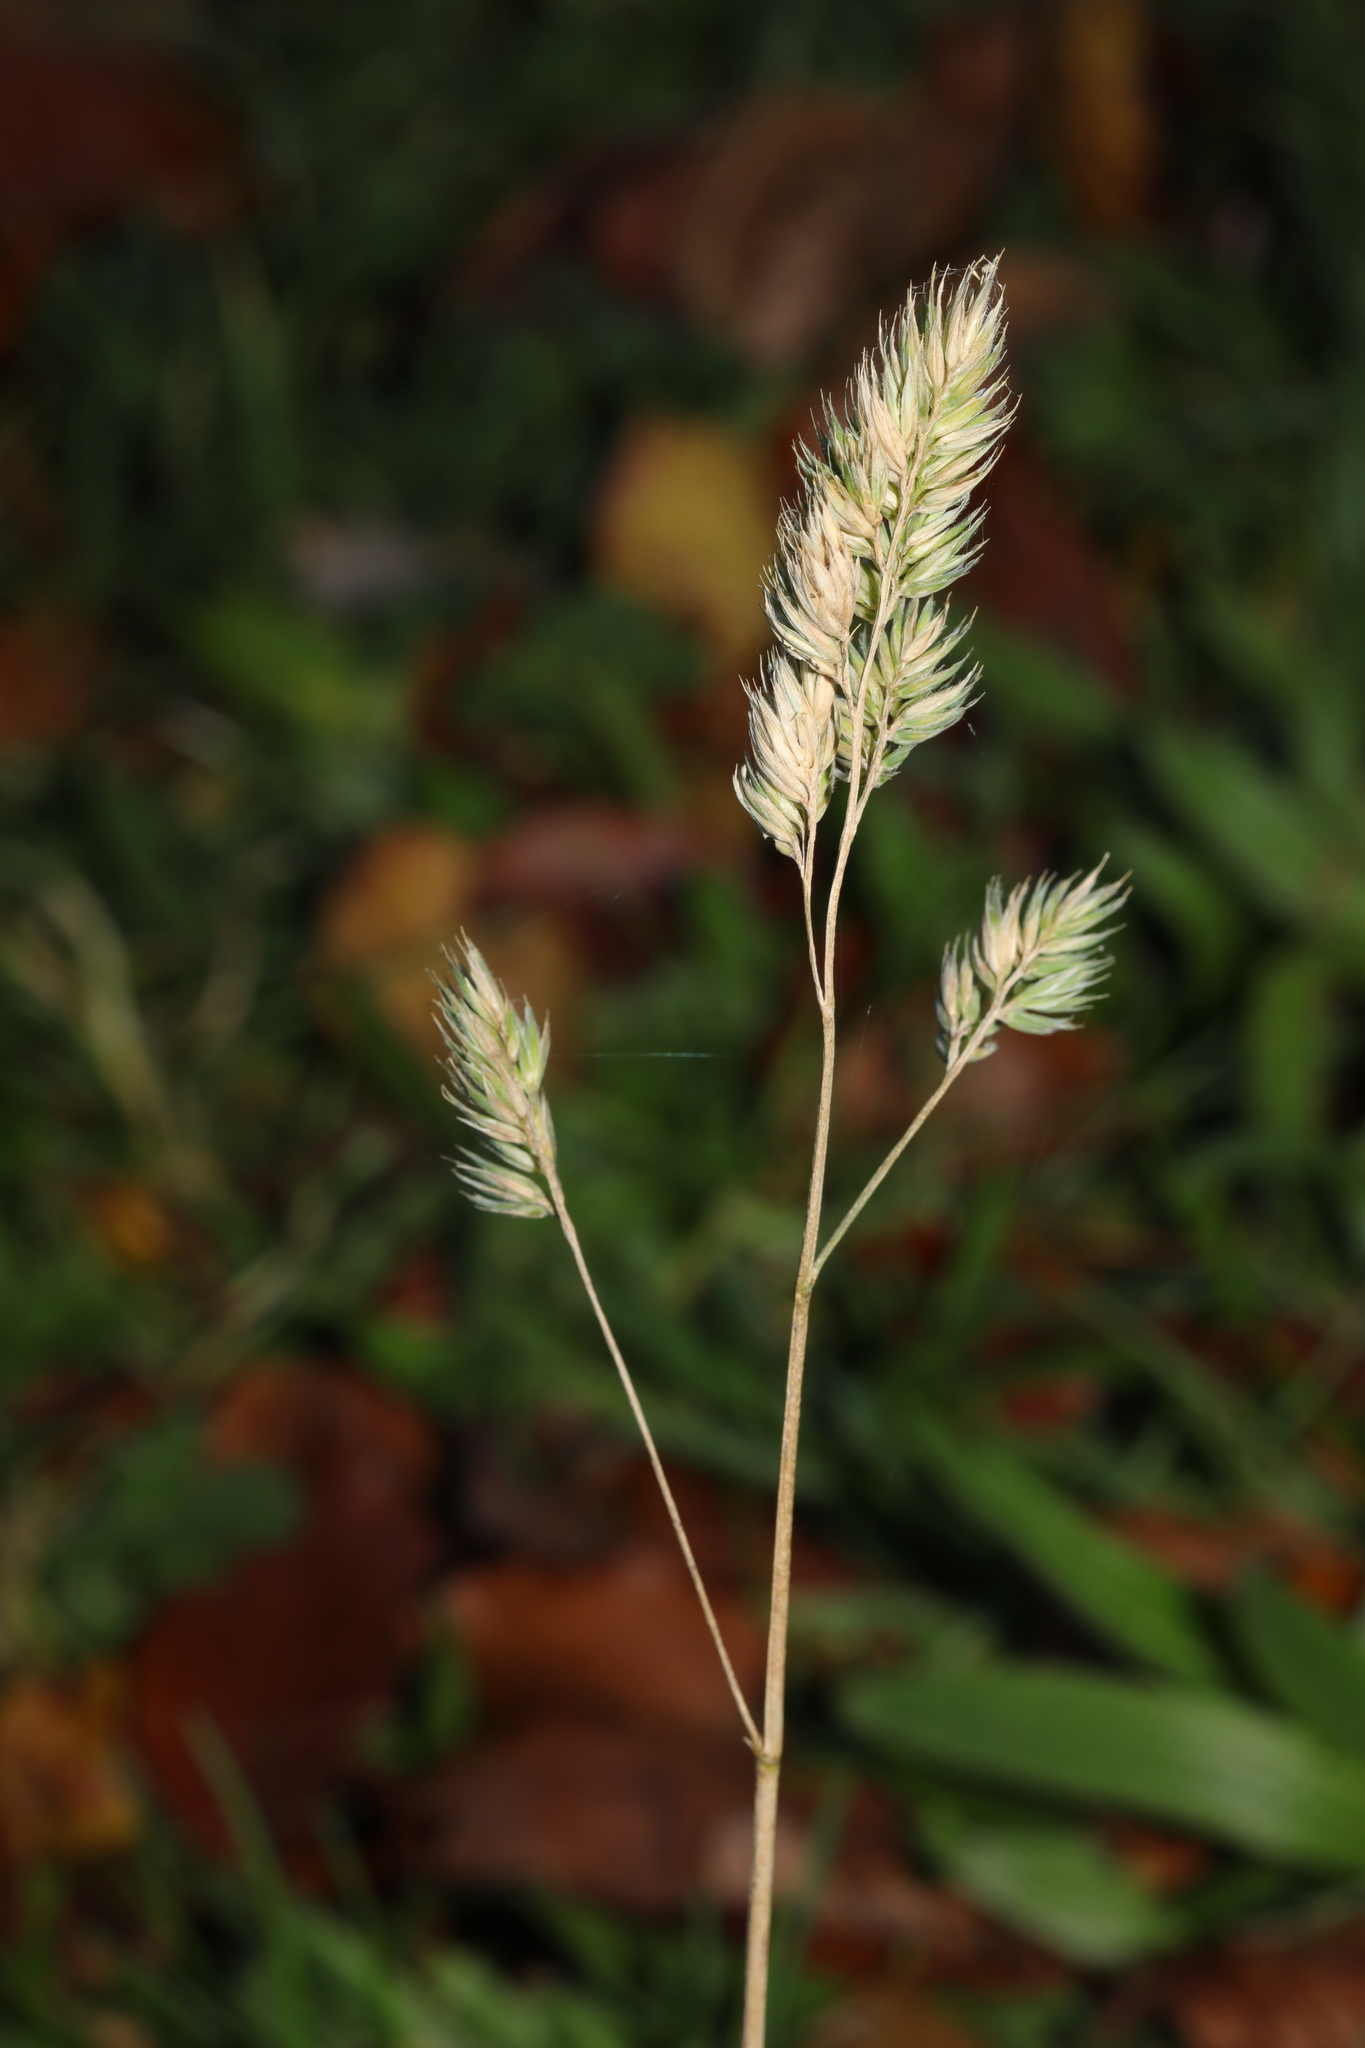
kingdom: Plantae
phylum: Tracheophyta
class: Liliopsida
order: Poales
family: Poaceae
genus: Dactylis
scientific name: Dactylis glomerata
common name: Orchardgrass
